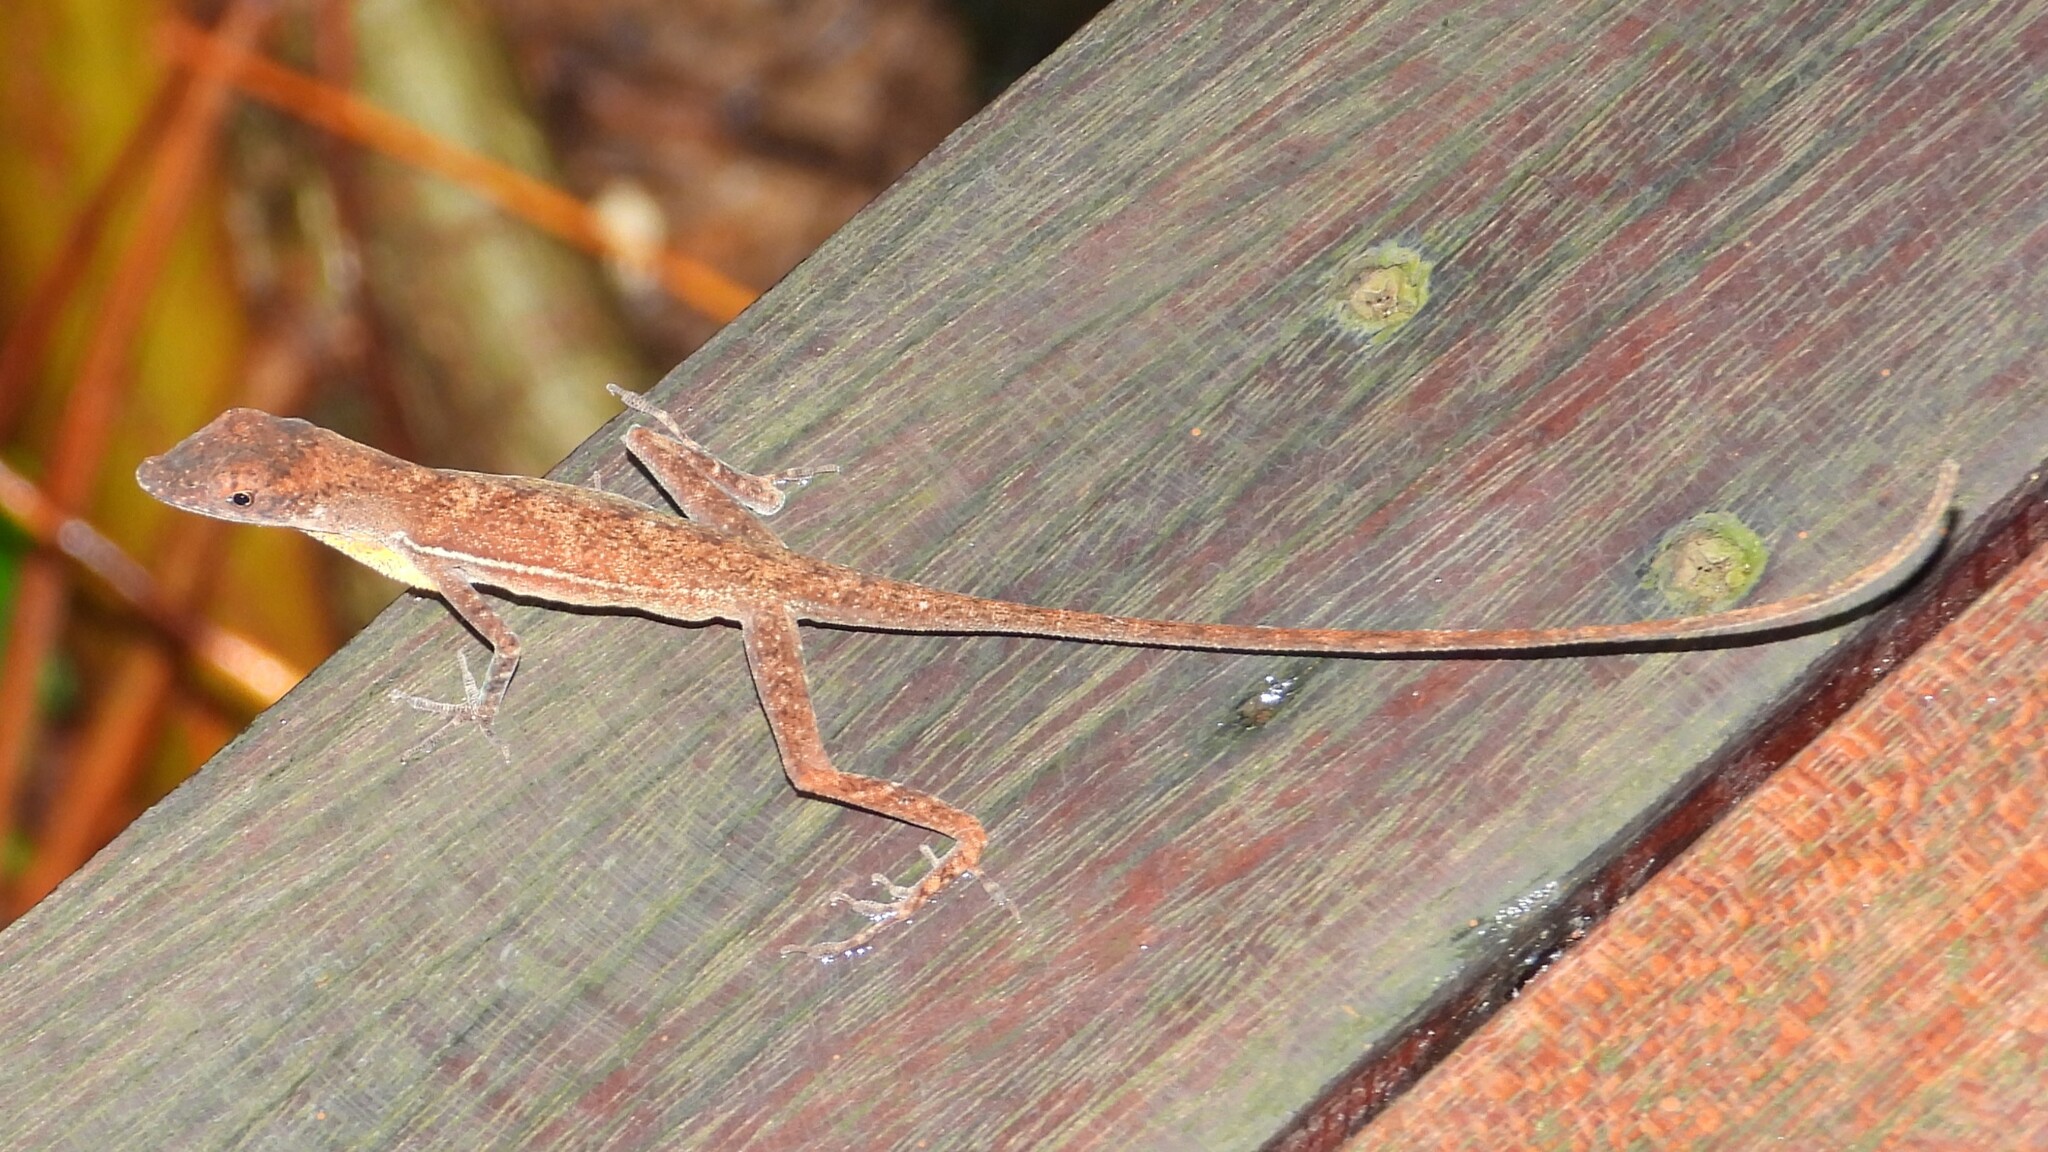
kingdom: Animalia
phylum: Chordata
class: Squamata
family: Dactyloidae
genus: Anolis
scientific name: Anolis osa
